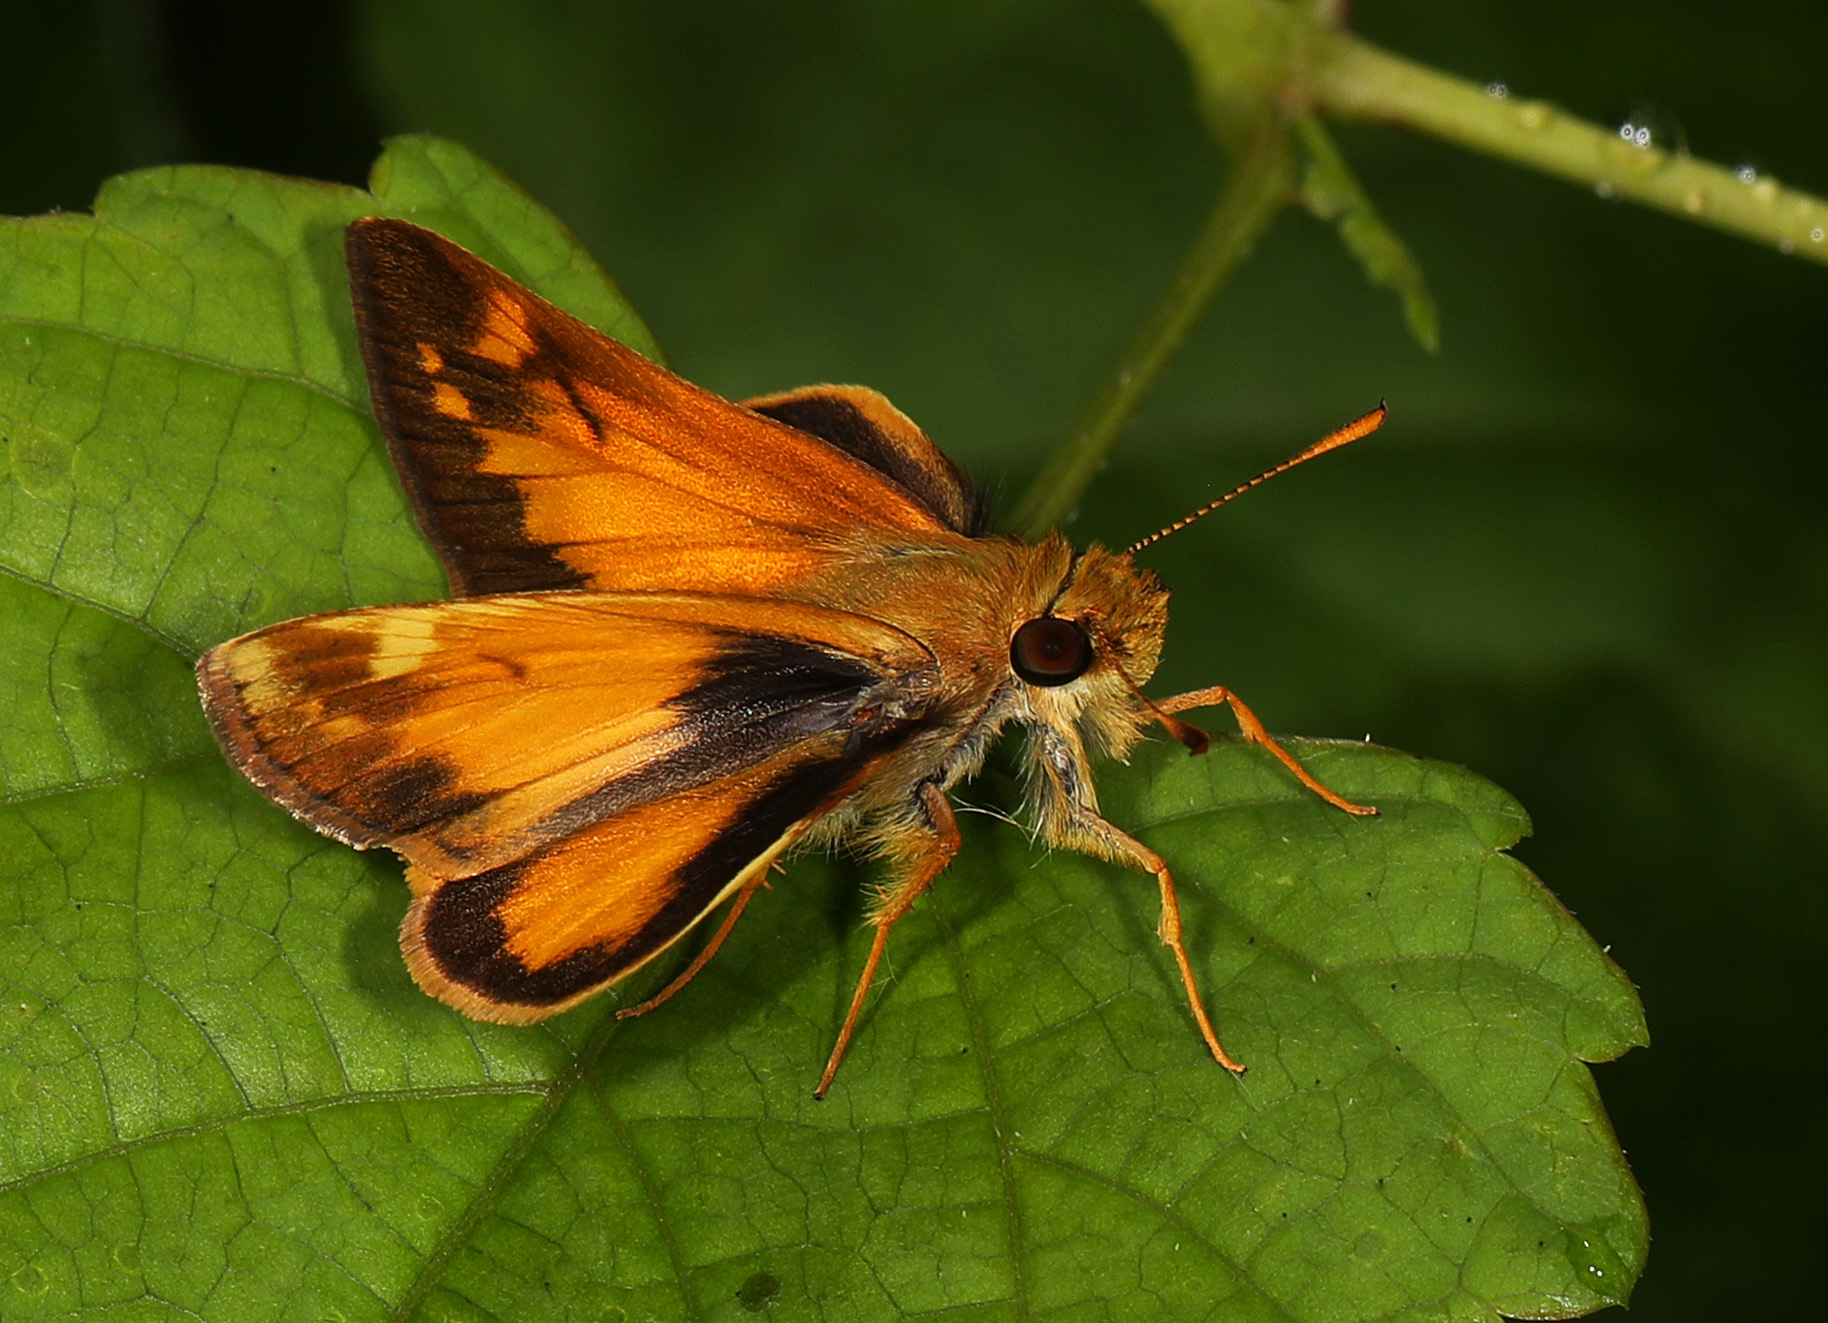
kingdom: Animalia
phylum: Arthropoda
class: Insecta
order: Lepidoptera
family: Hesperiidae
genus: Lon
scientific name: Lon zabulon
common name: Zabulon skipper
